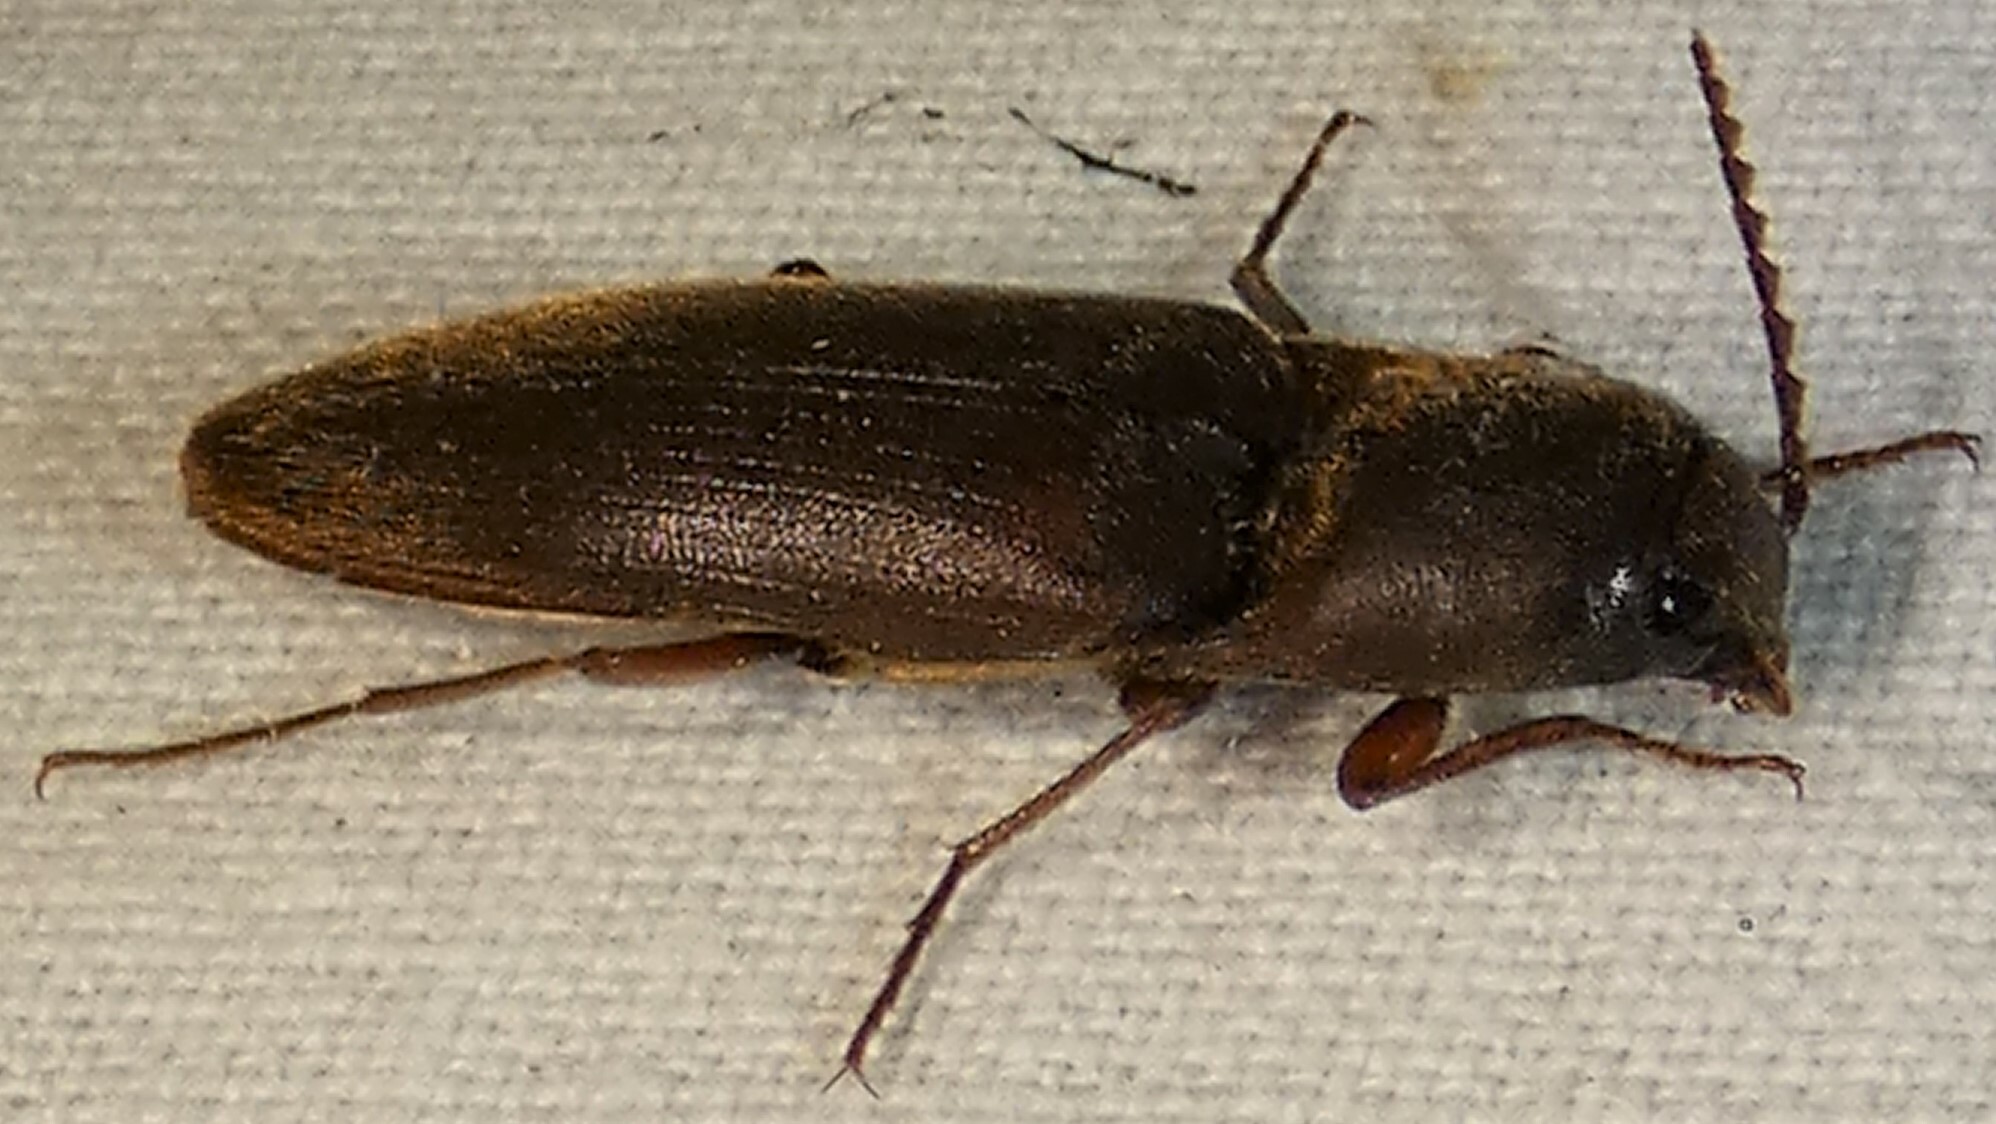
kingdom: Animalia
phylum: Arthropoda
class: Insecta
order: Coleoptera
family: Elateridae
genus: Diplostethus
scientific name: Diplostethus
